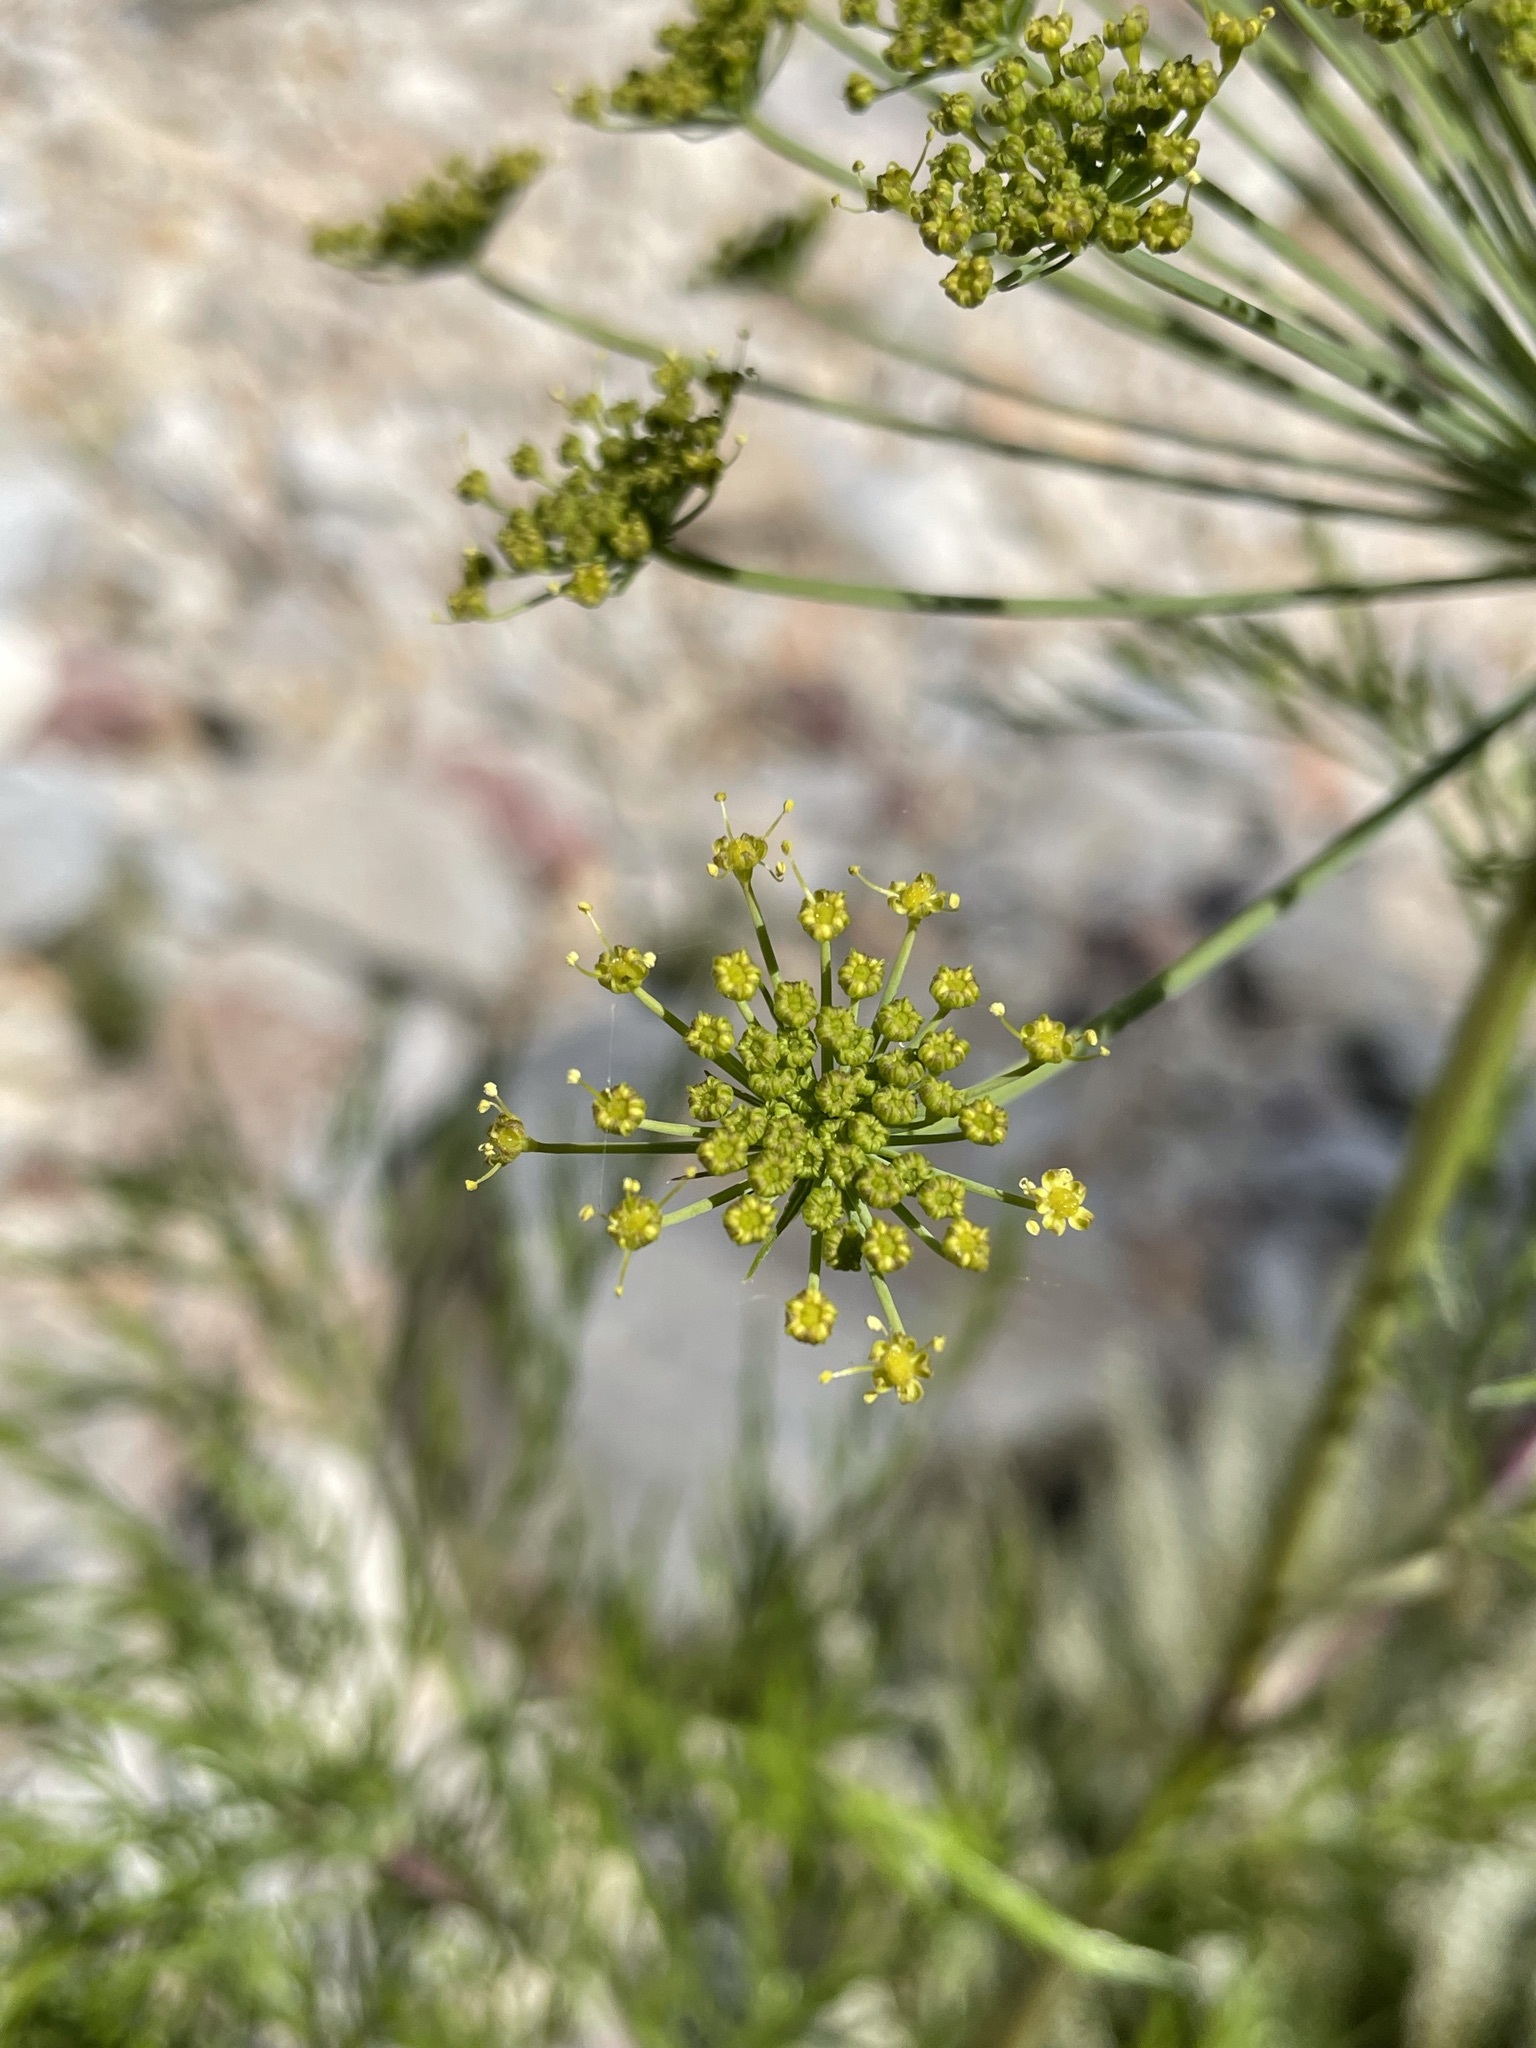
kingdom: Plantae
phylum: Tracheophyta
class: Magnoliopsida
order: Apiales
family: Apiaceae
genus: Notobubon
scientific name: Notobubon tenuifolium
